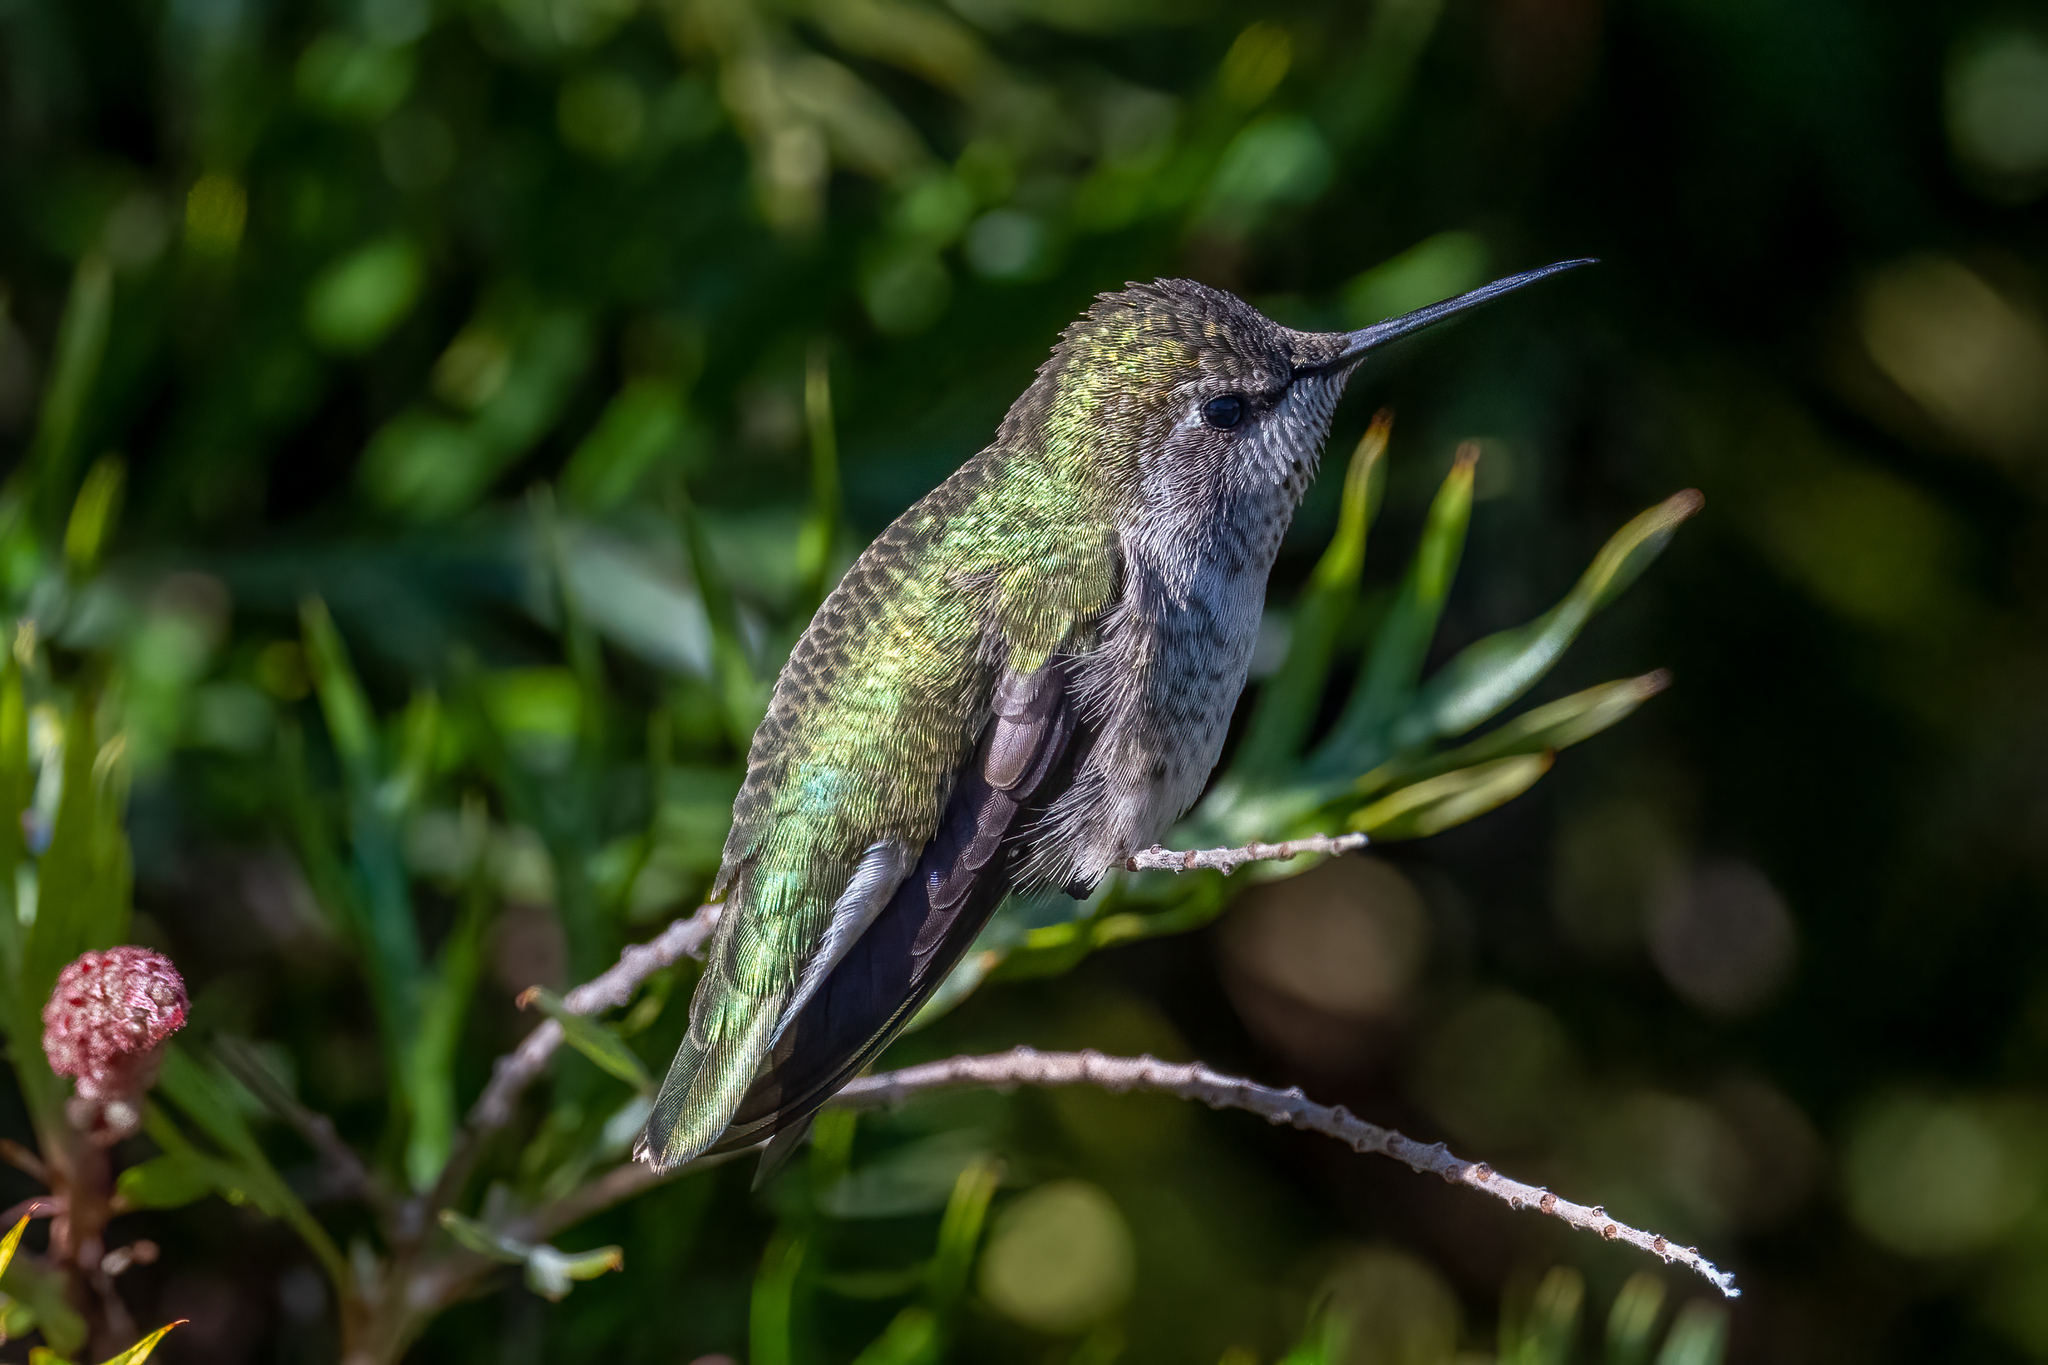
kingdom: Animalia
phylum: Chordata
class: Aves
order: Apodiformes
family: Trochilidae
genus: Calypte
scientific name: Calypte anna
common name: Anna's hummingbird
